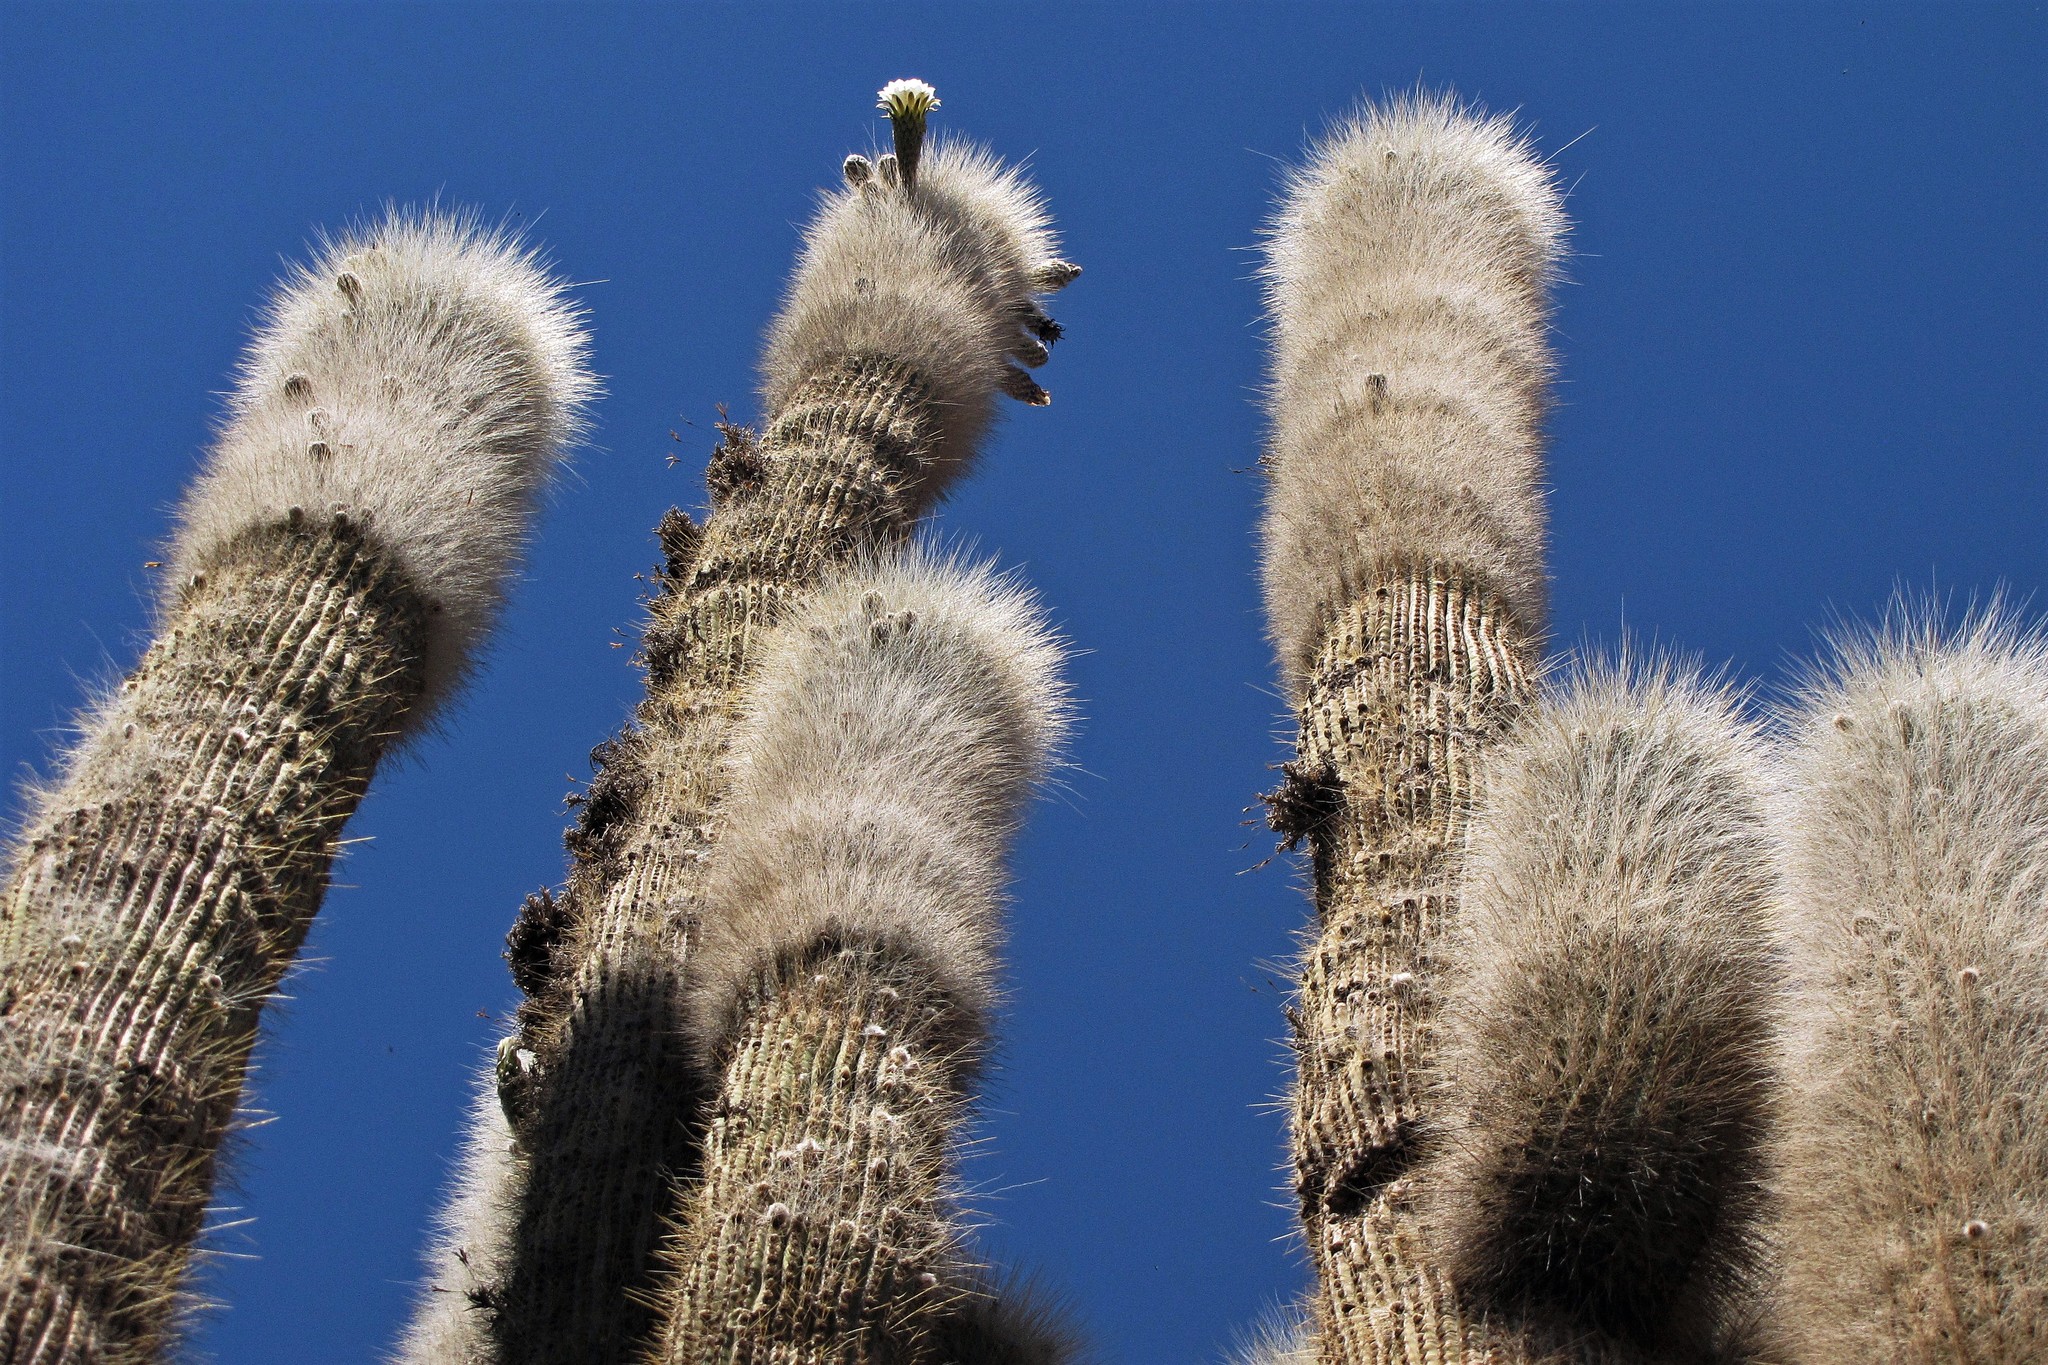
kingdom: Plantae
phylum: Tracheophyta
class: Magnoliopsida
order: Caryophyllales
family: Cactaceae
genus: Leucostele
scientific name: Leucostele atacamensis
